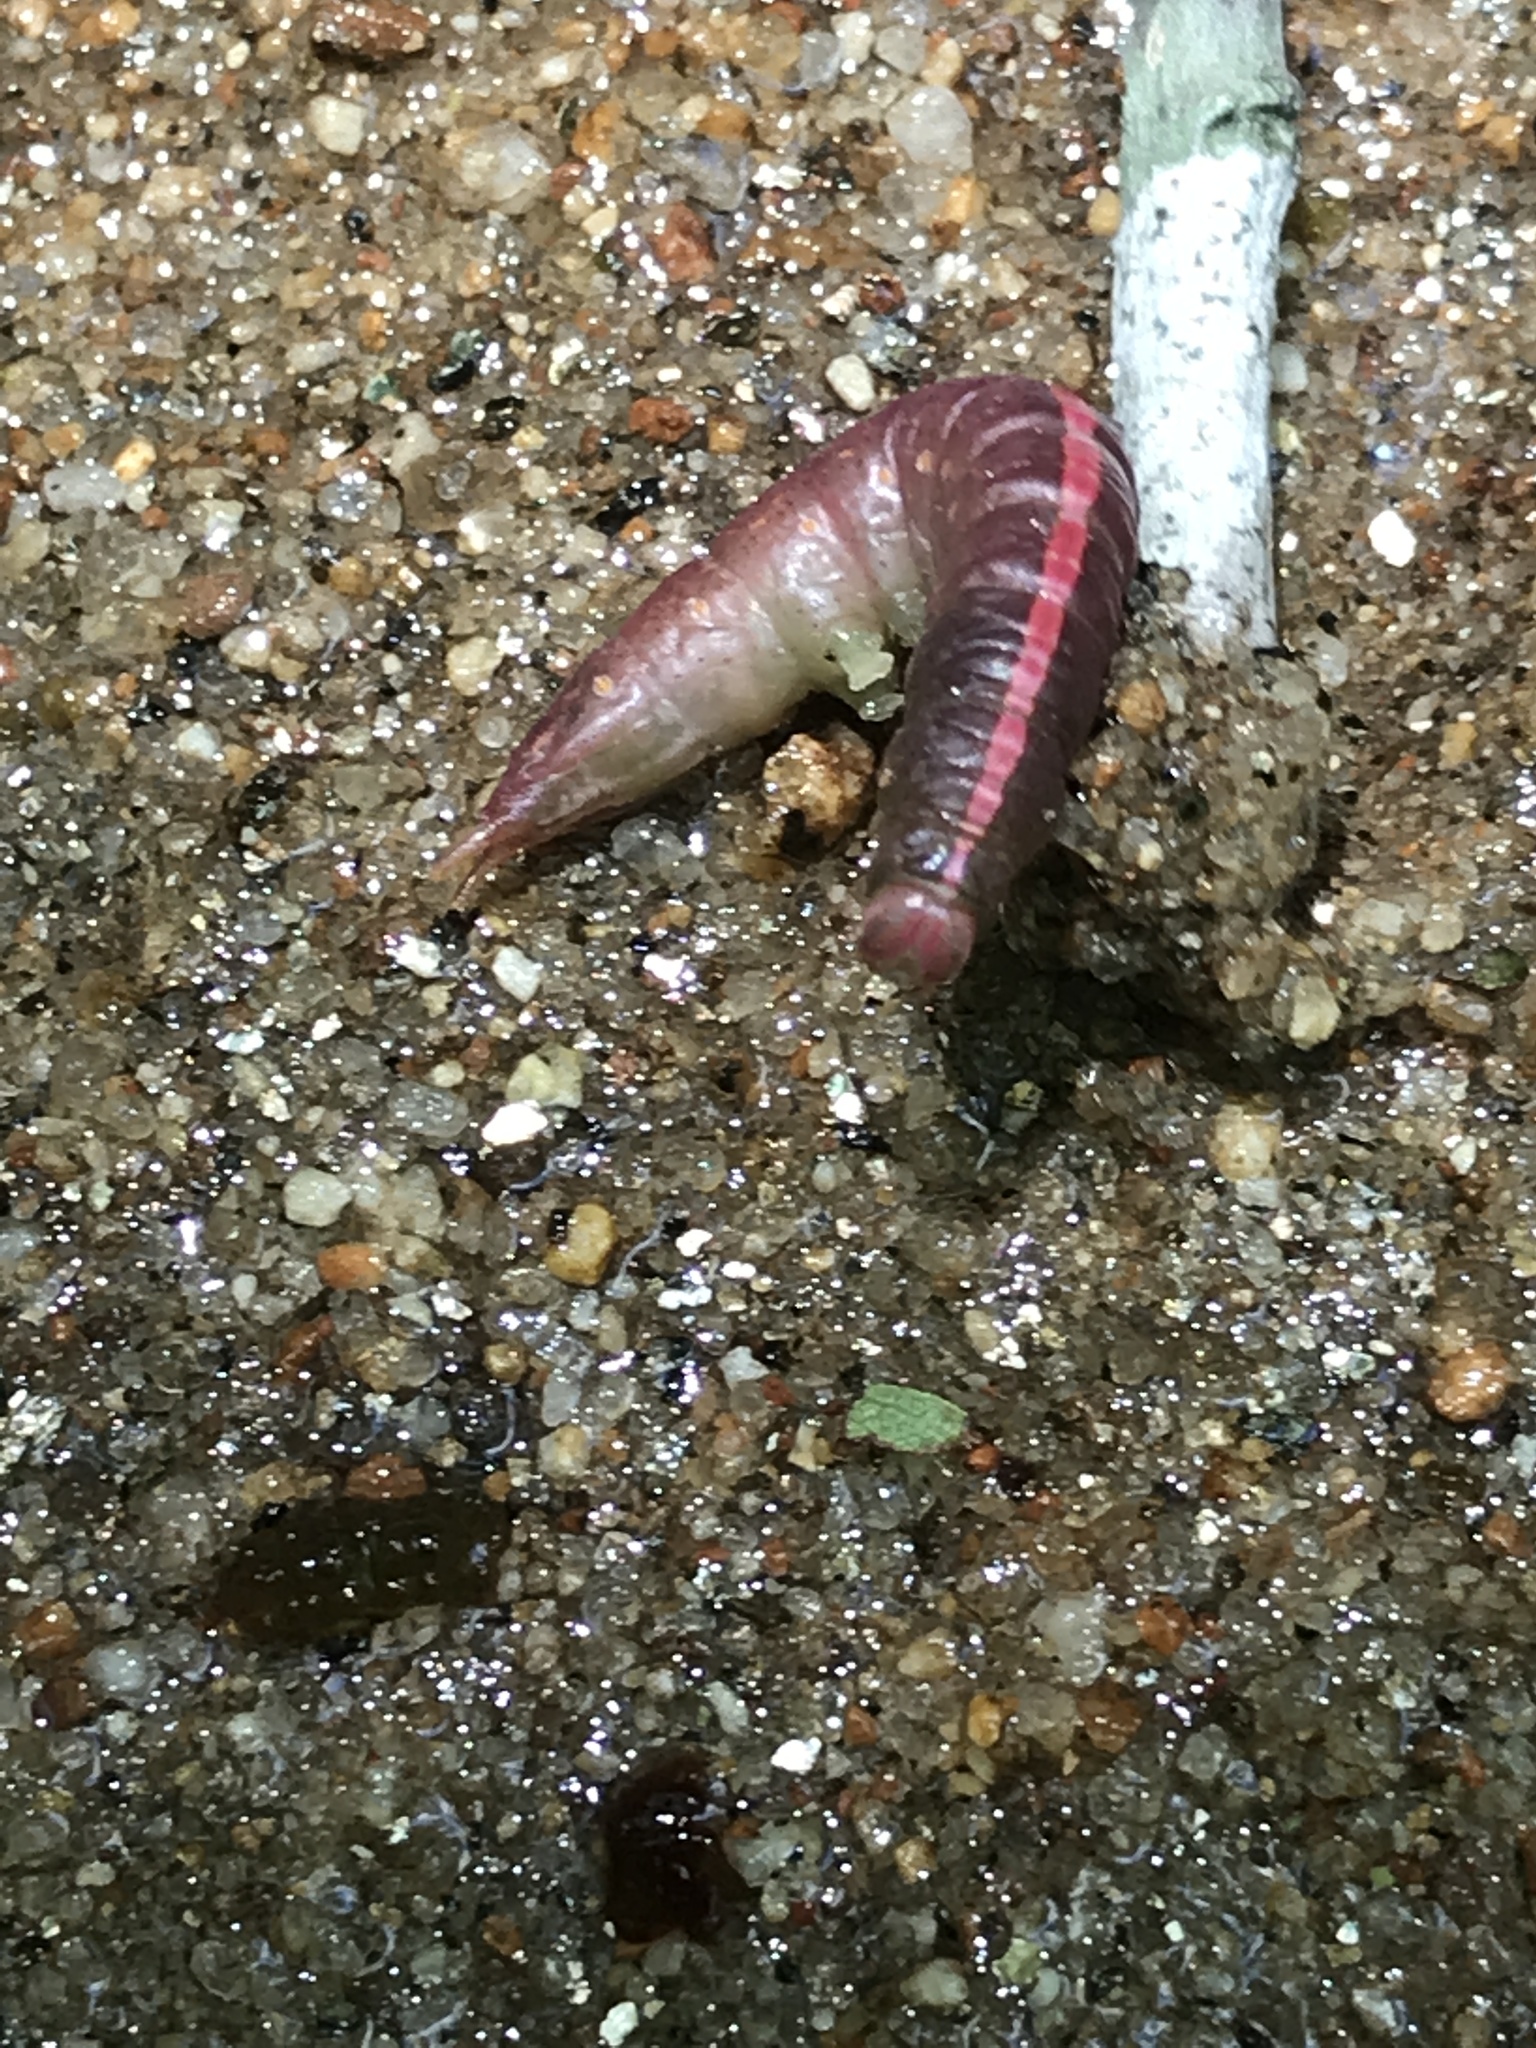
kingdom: Animalia
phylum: Arthropoda
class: Insecta
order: Lepidoptera
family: Notodontidae
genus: Misogada
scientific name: Misogada unicolor
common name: Drab prominent
